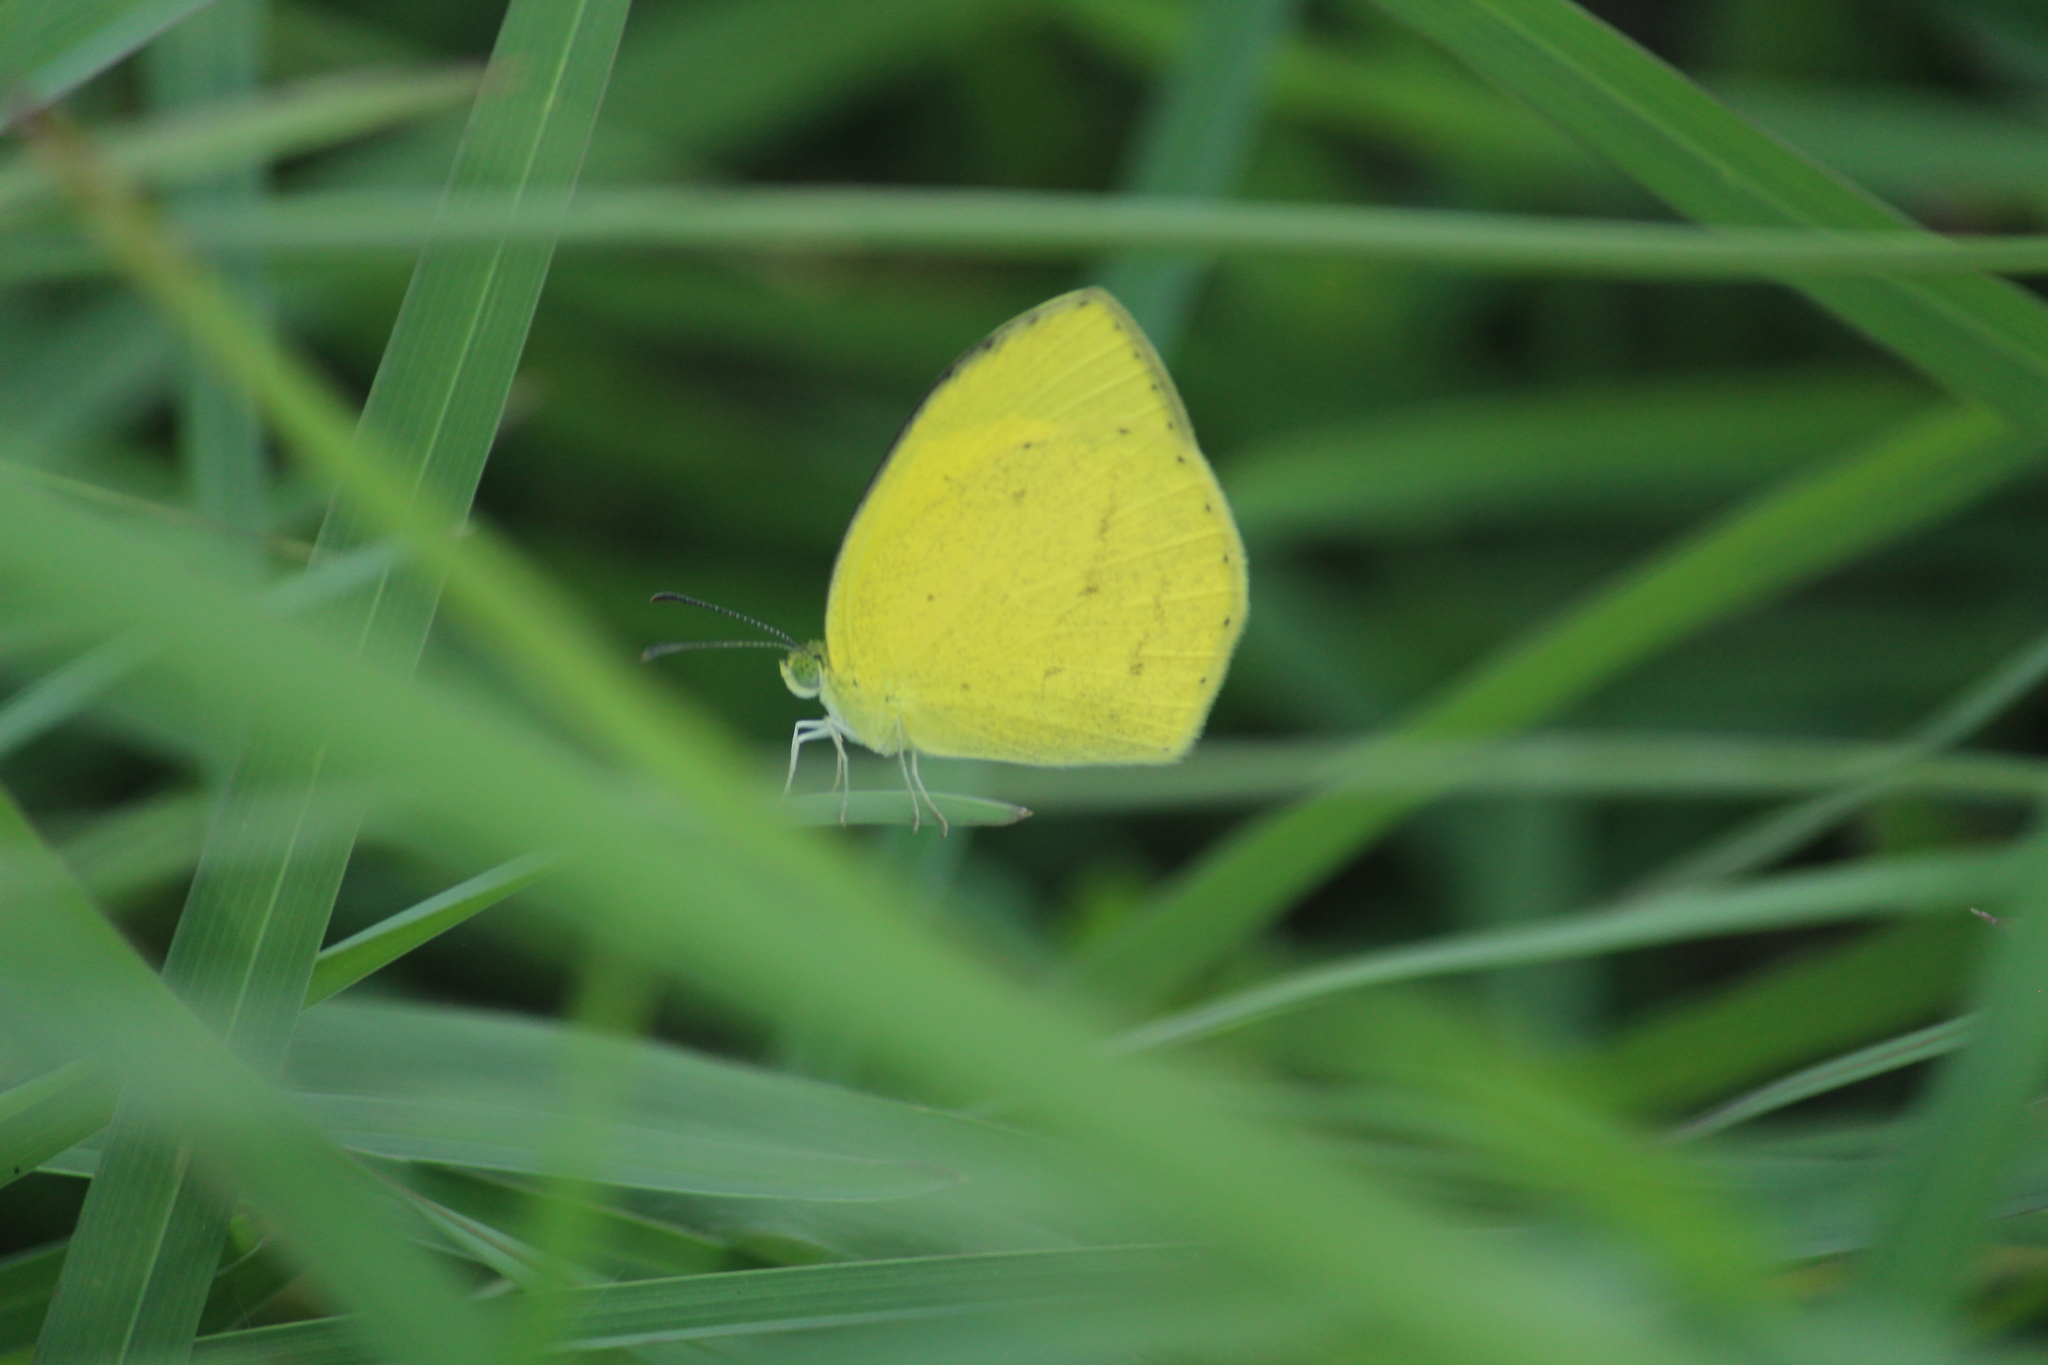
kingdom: Animalia
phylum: Arthropoda
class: Insecta
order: Lepidoptera
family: Pieridae
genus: Eurema
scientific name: Eurema laeta
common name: Spotless grass yellow
